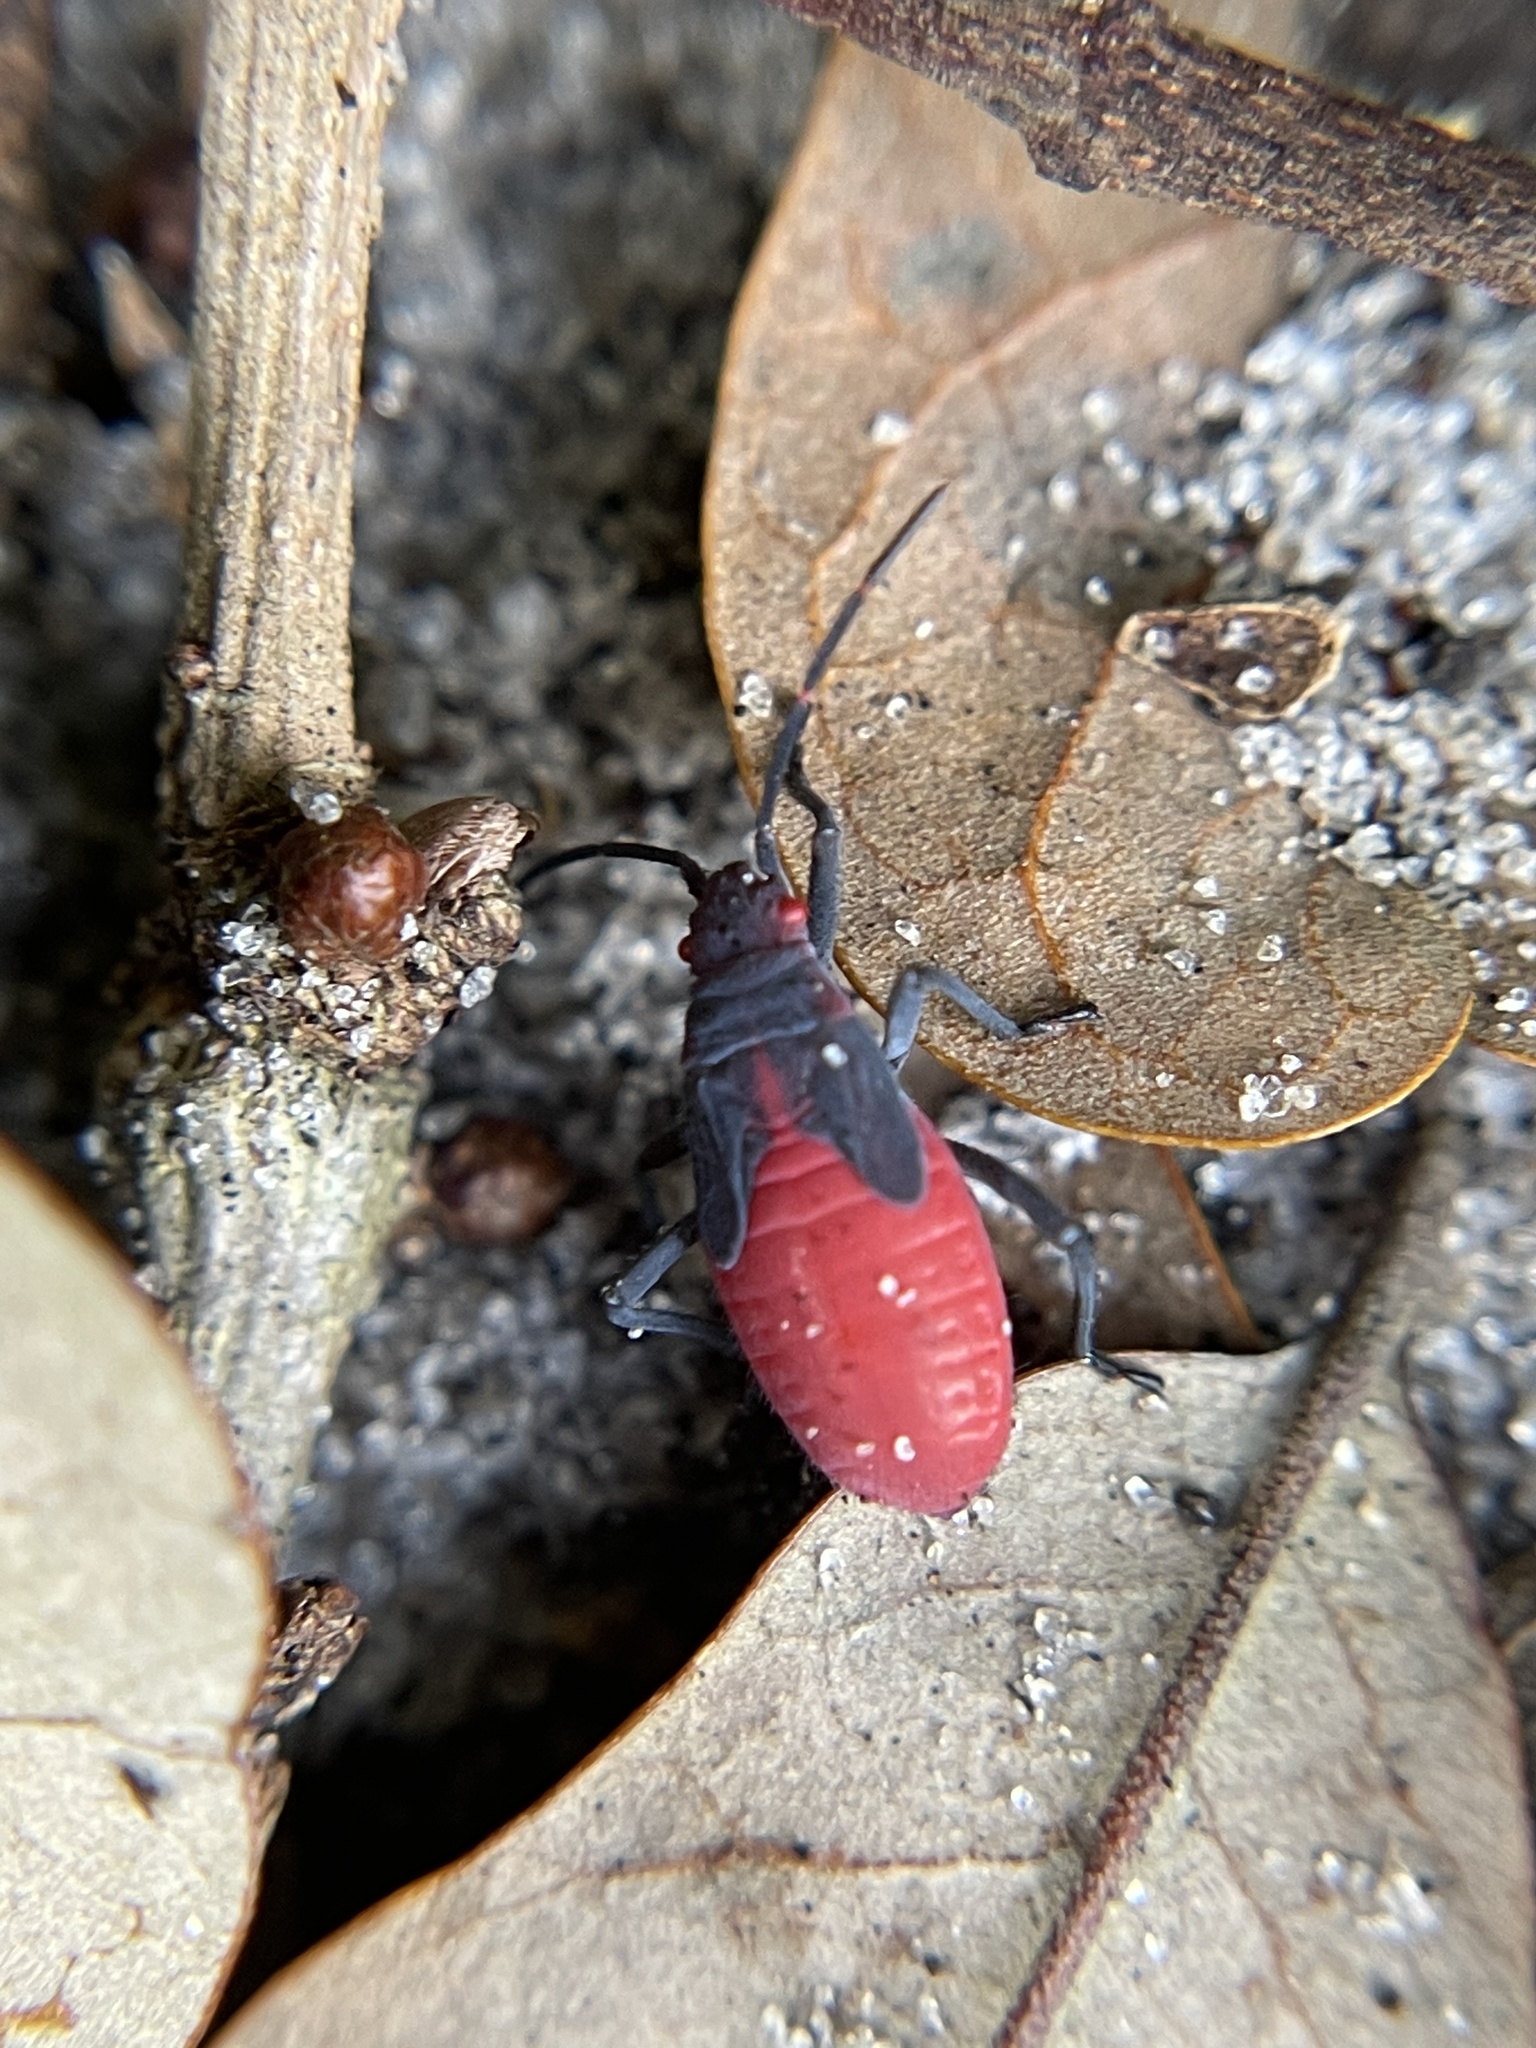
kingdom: Animalia
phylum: Arthropoda
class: Insecta
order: Hemiptera
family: Rhopalidae
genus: Jadera
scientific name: Jadera haematoloma
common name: Red-shouldered bug
